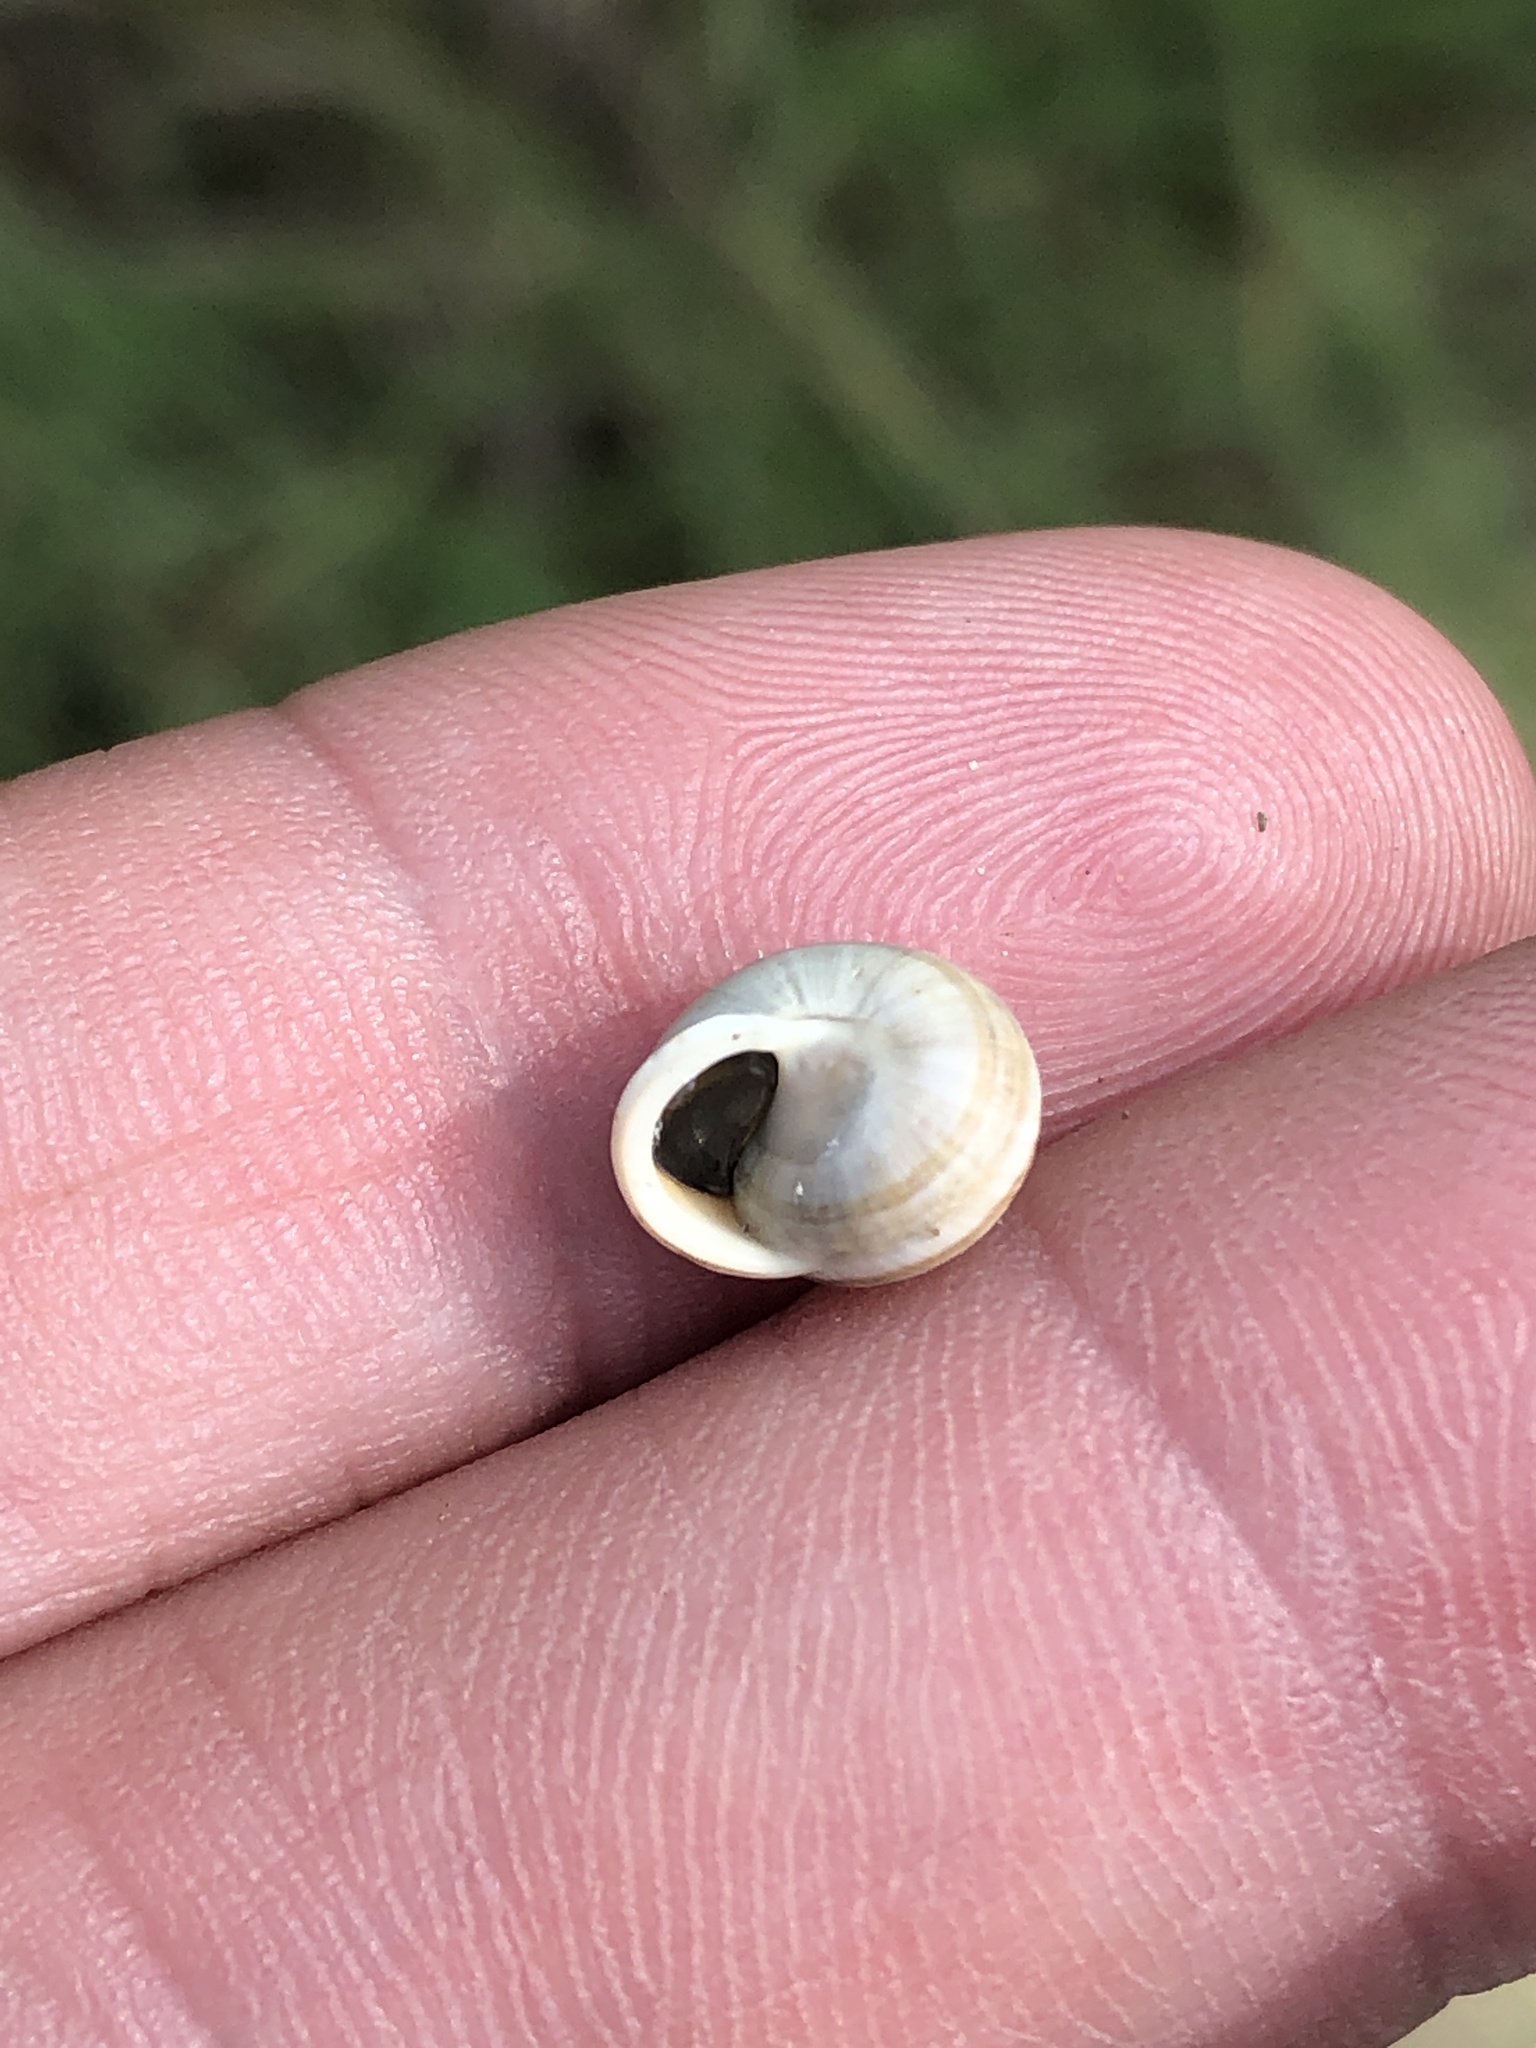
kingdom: Animalia
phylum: Mollusca
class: Gastropoda
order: Cycloneritida
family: Helicinidae
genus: Helicina
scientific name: Helicina orbiculata
